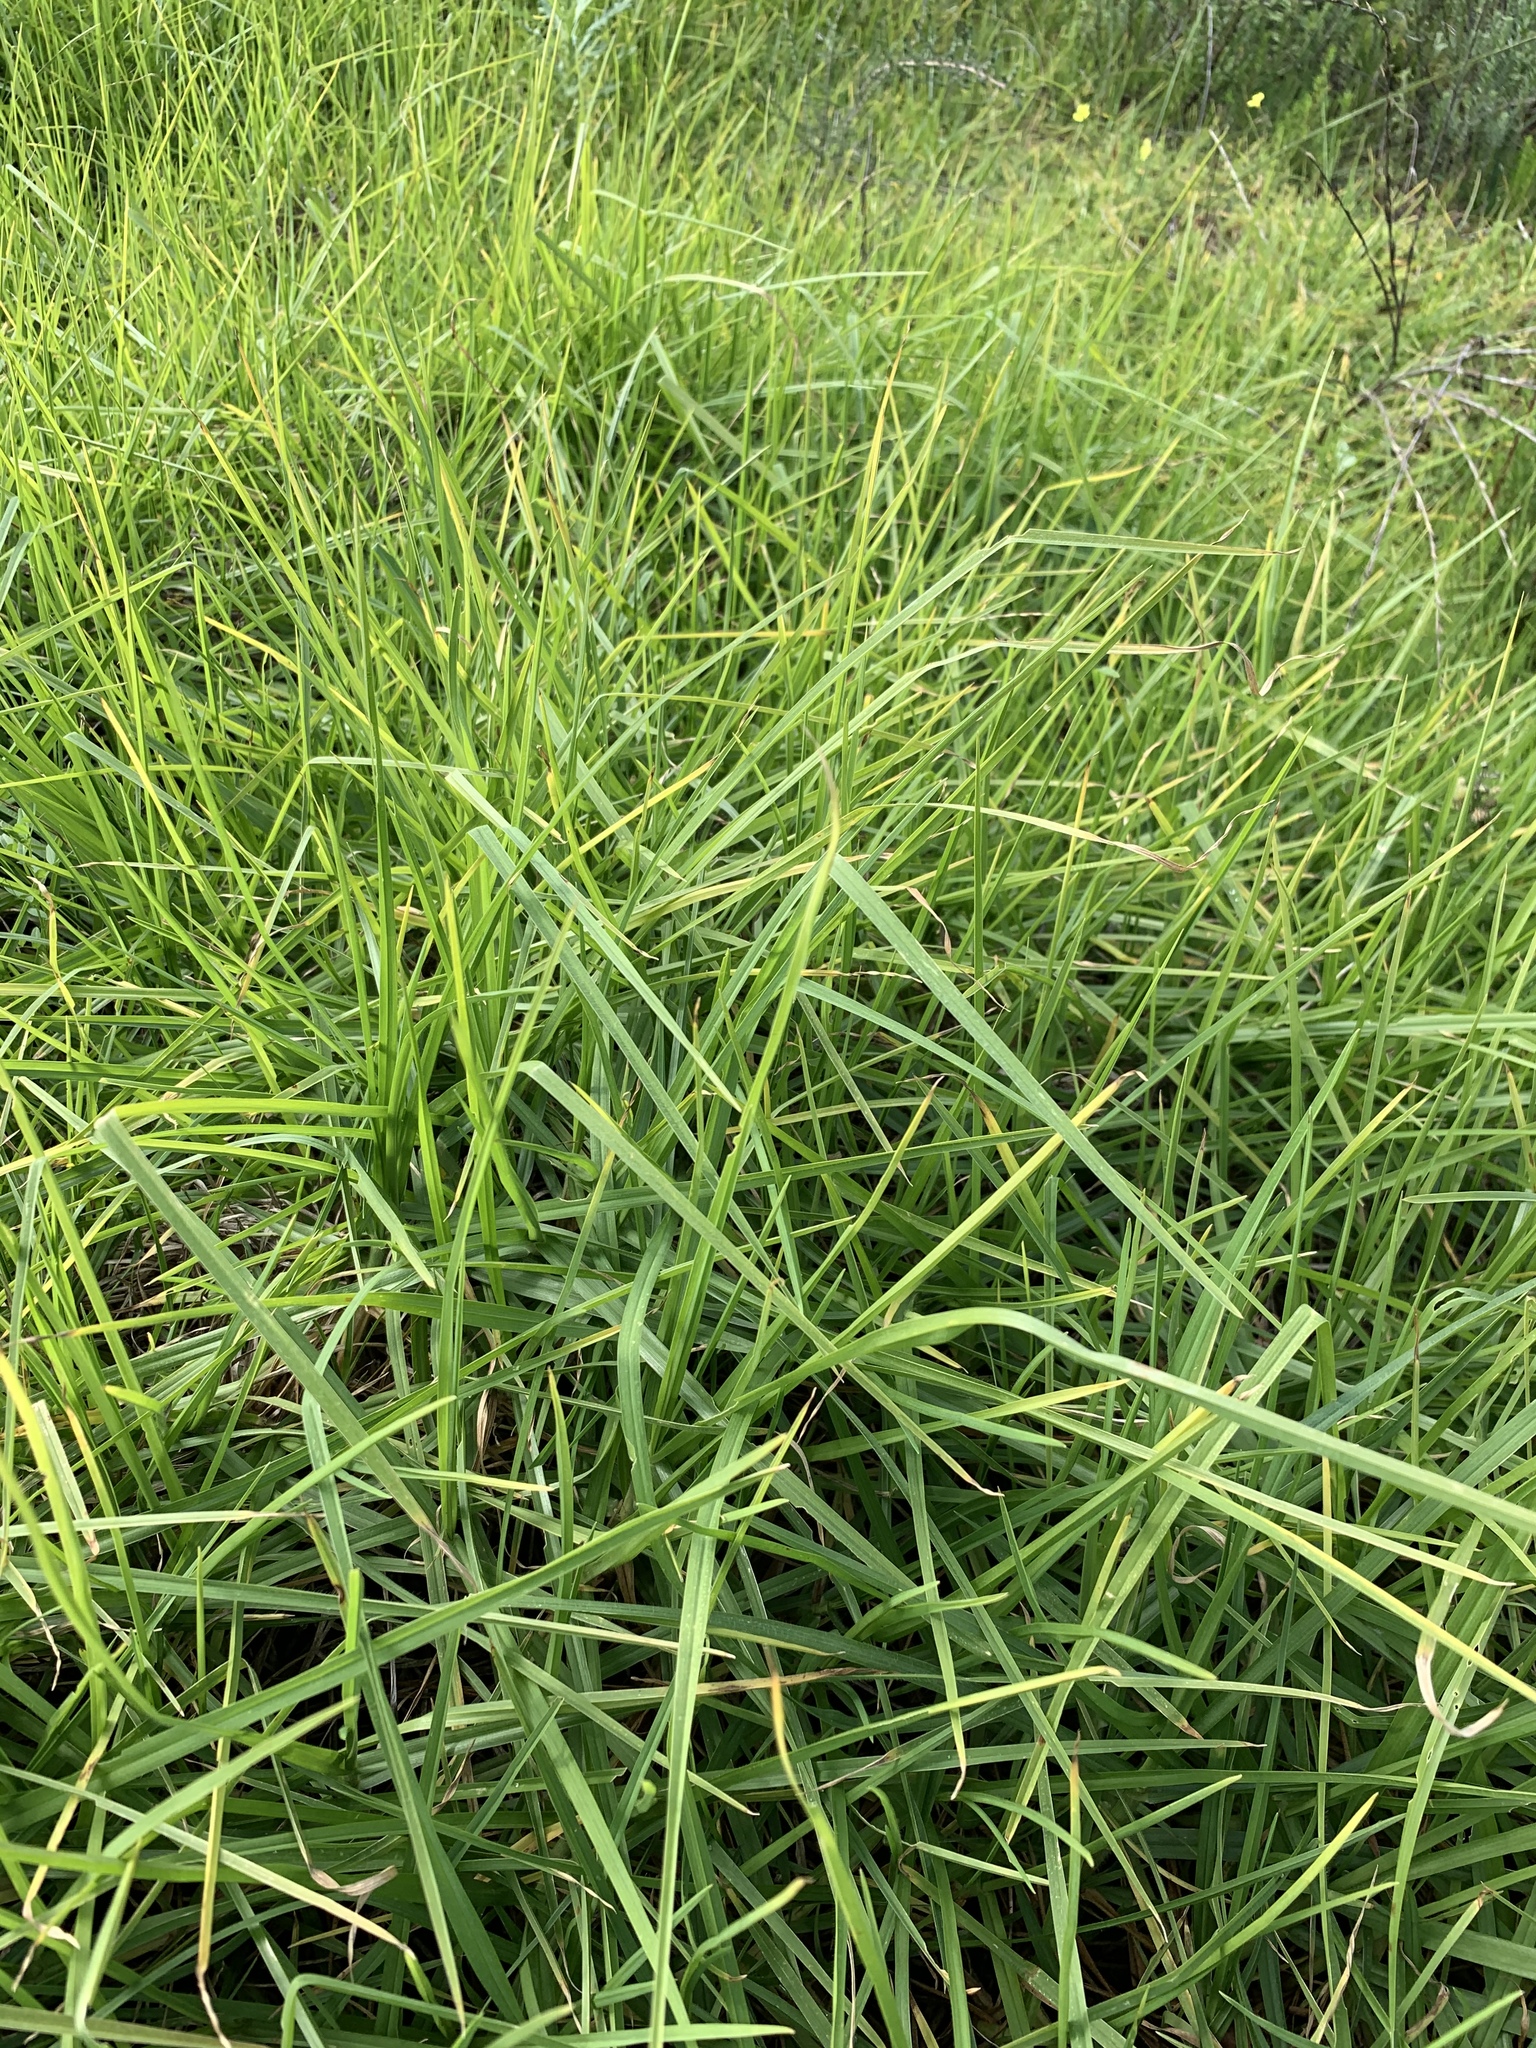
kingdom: Plantae
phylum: Tracheophyta
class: Liliopsida
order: Poales
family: Poaceae
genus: Cenchrus
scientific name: Cenchrus clandestinus
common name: Kikuyugrass
